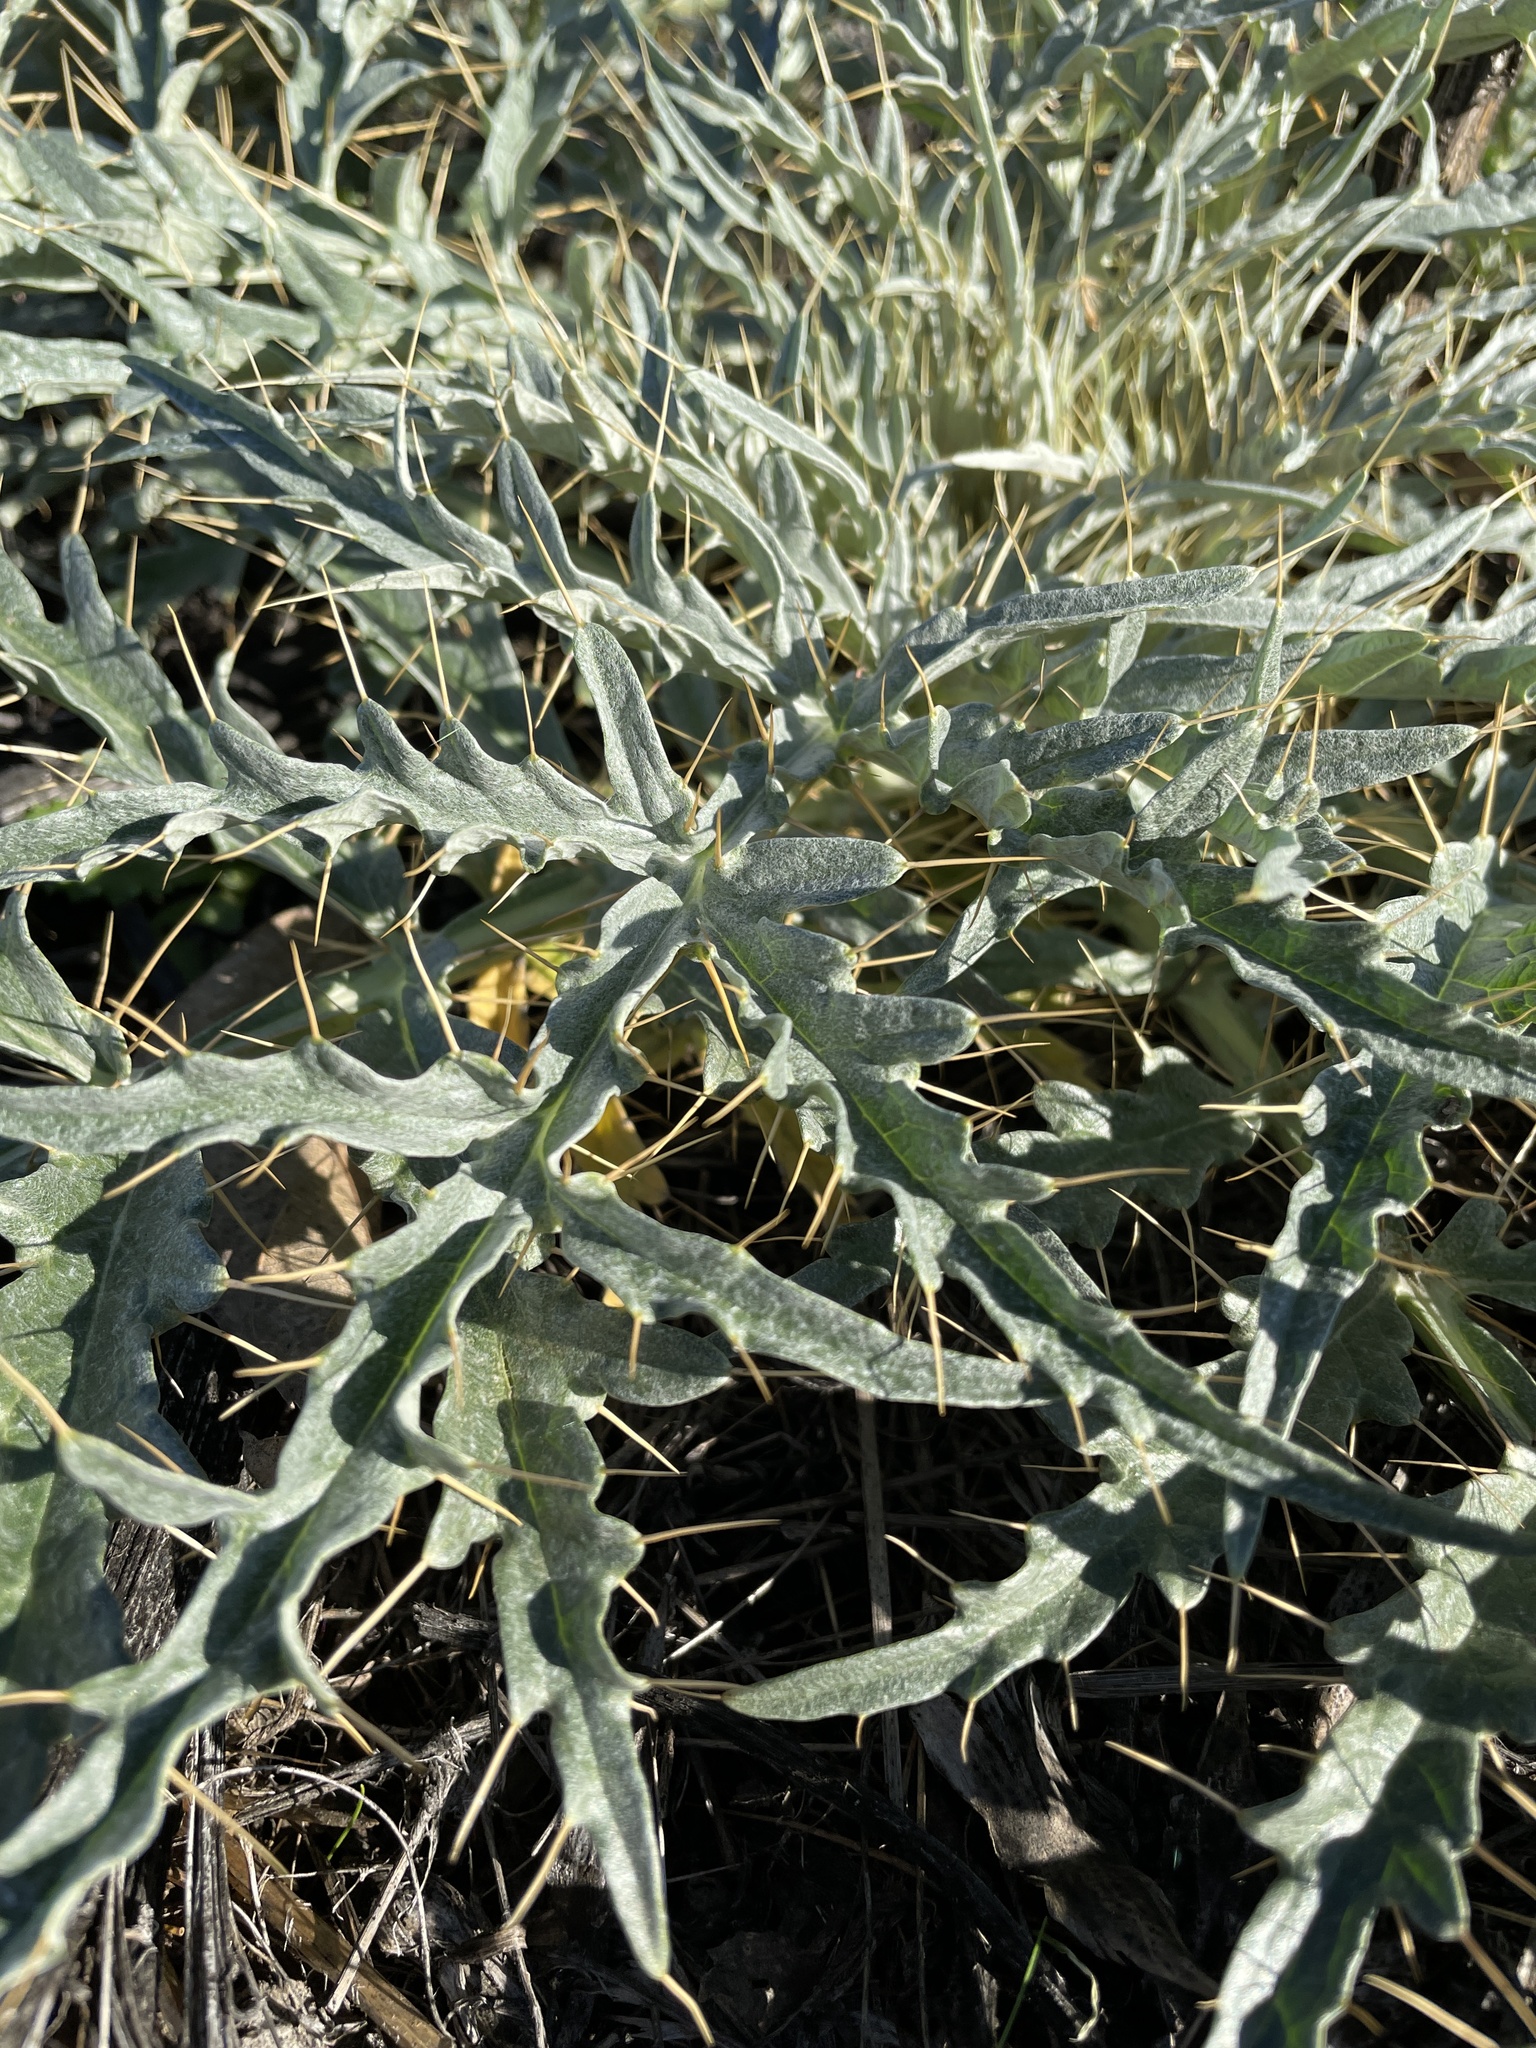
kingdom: Plantae
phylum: Tracheophyta
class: Magnoliopsida
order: Asterales
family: Asteraceae
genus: Cynara
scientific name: Cynara cardunculus
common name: Globe artichoke
